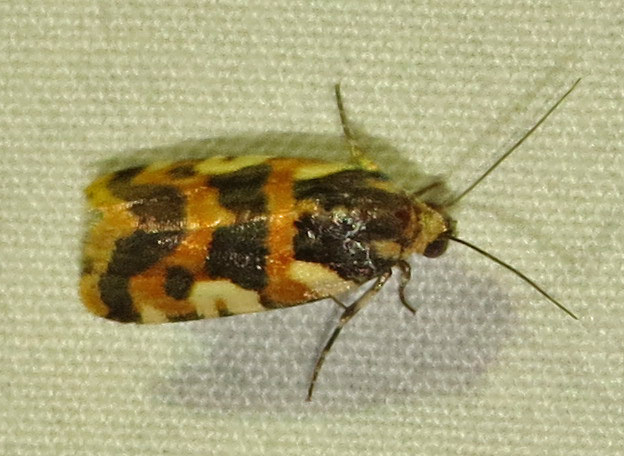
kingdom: Animalia
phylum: Arthropoda
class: Insecta
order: Lepidoptera
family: Noctuidae
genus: Acontia
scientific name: Acontia dama
